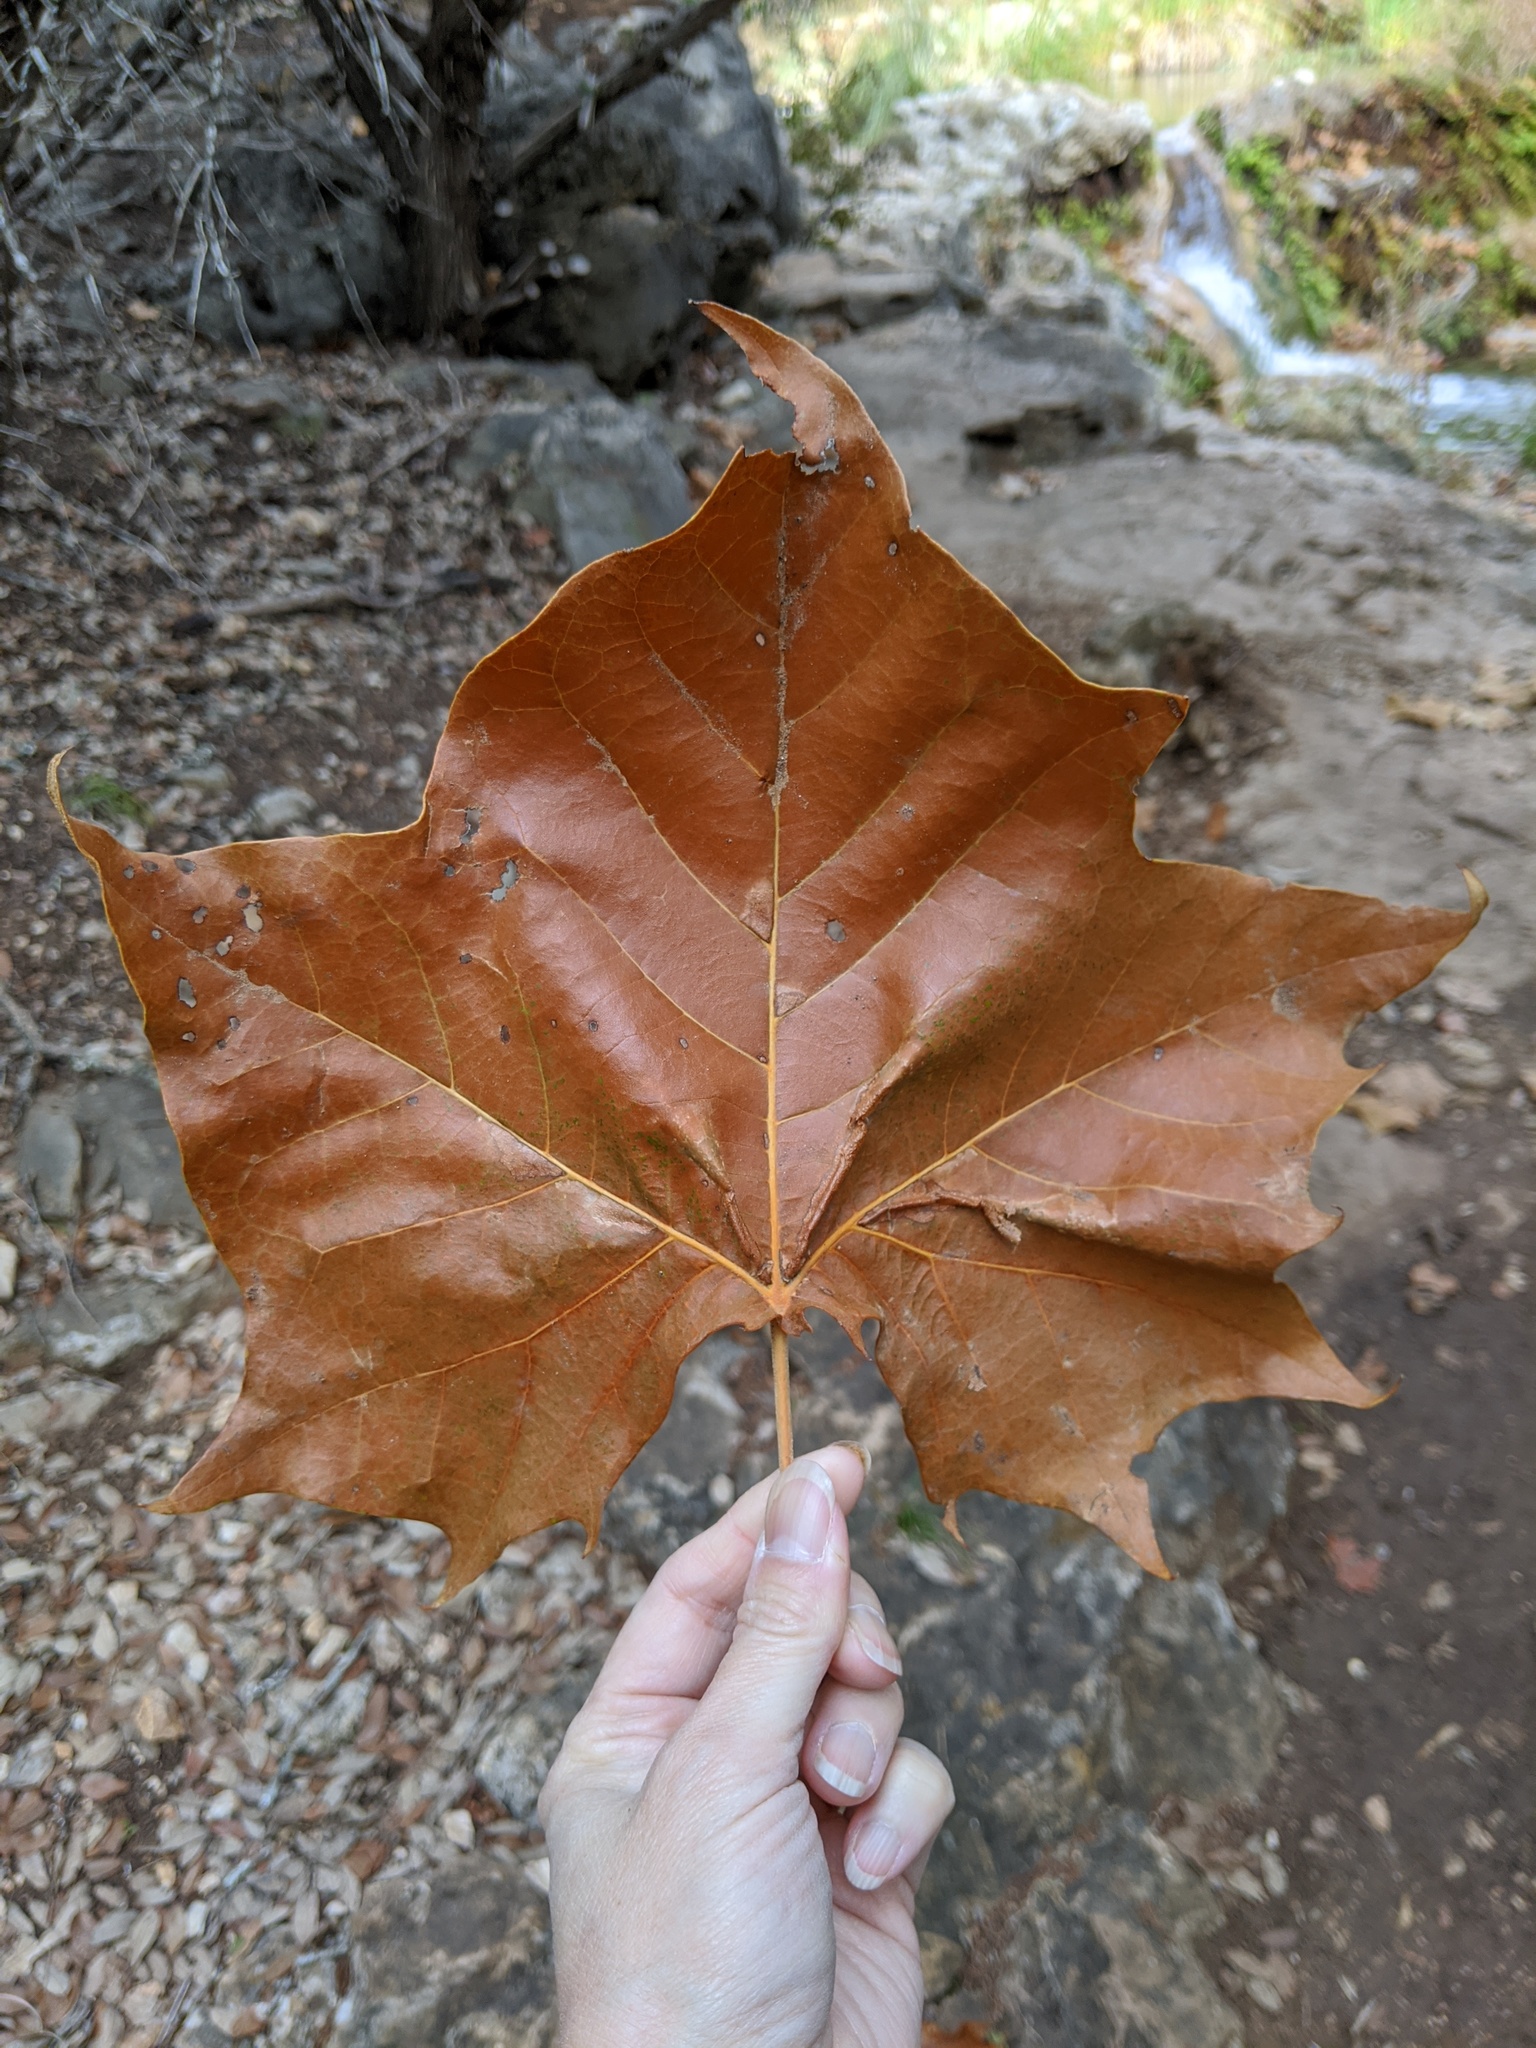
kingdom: Plantae
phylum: Tracheophyta
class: Magnoliopsida
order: Proteales
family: Platanaceae
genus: Platanus
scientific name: Platanus occidentalis
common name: American sycamore
